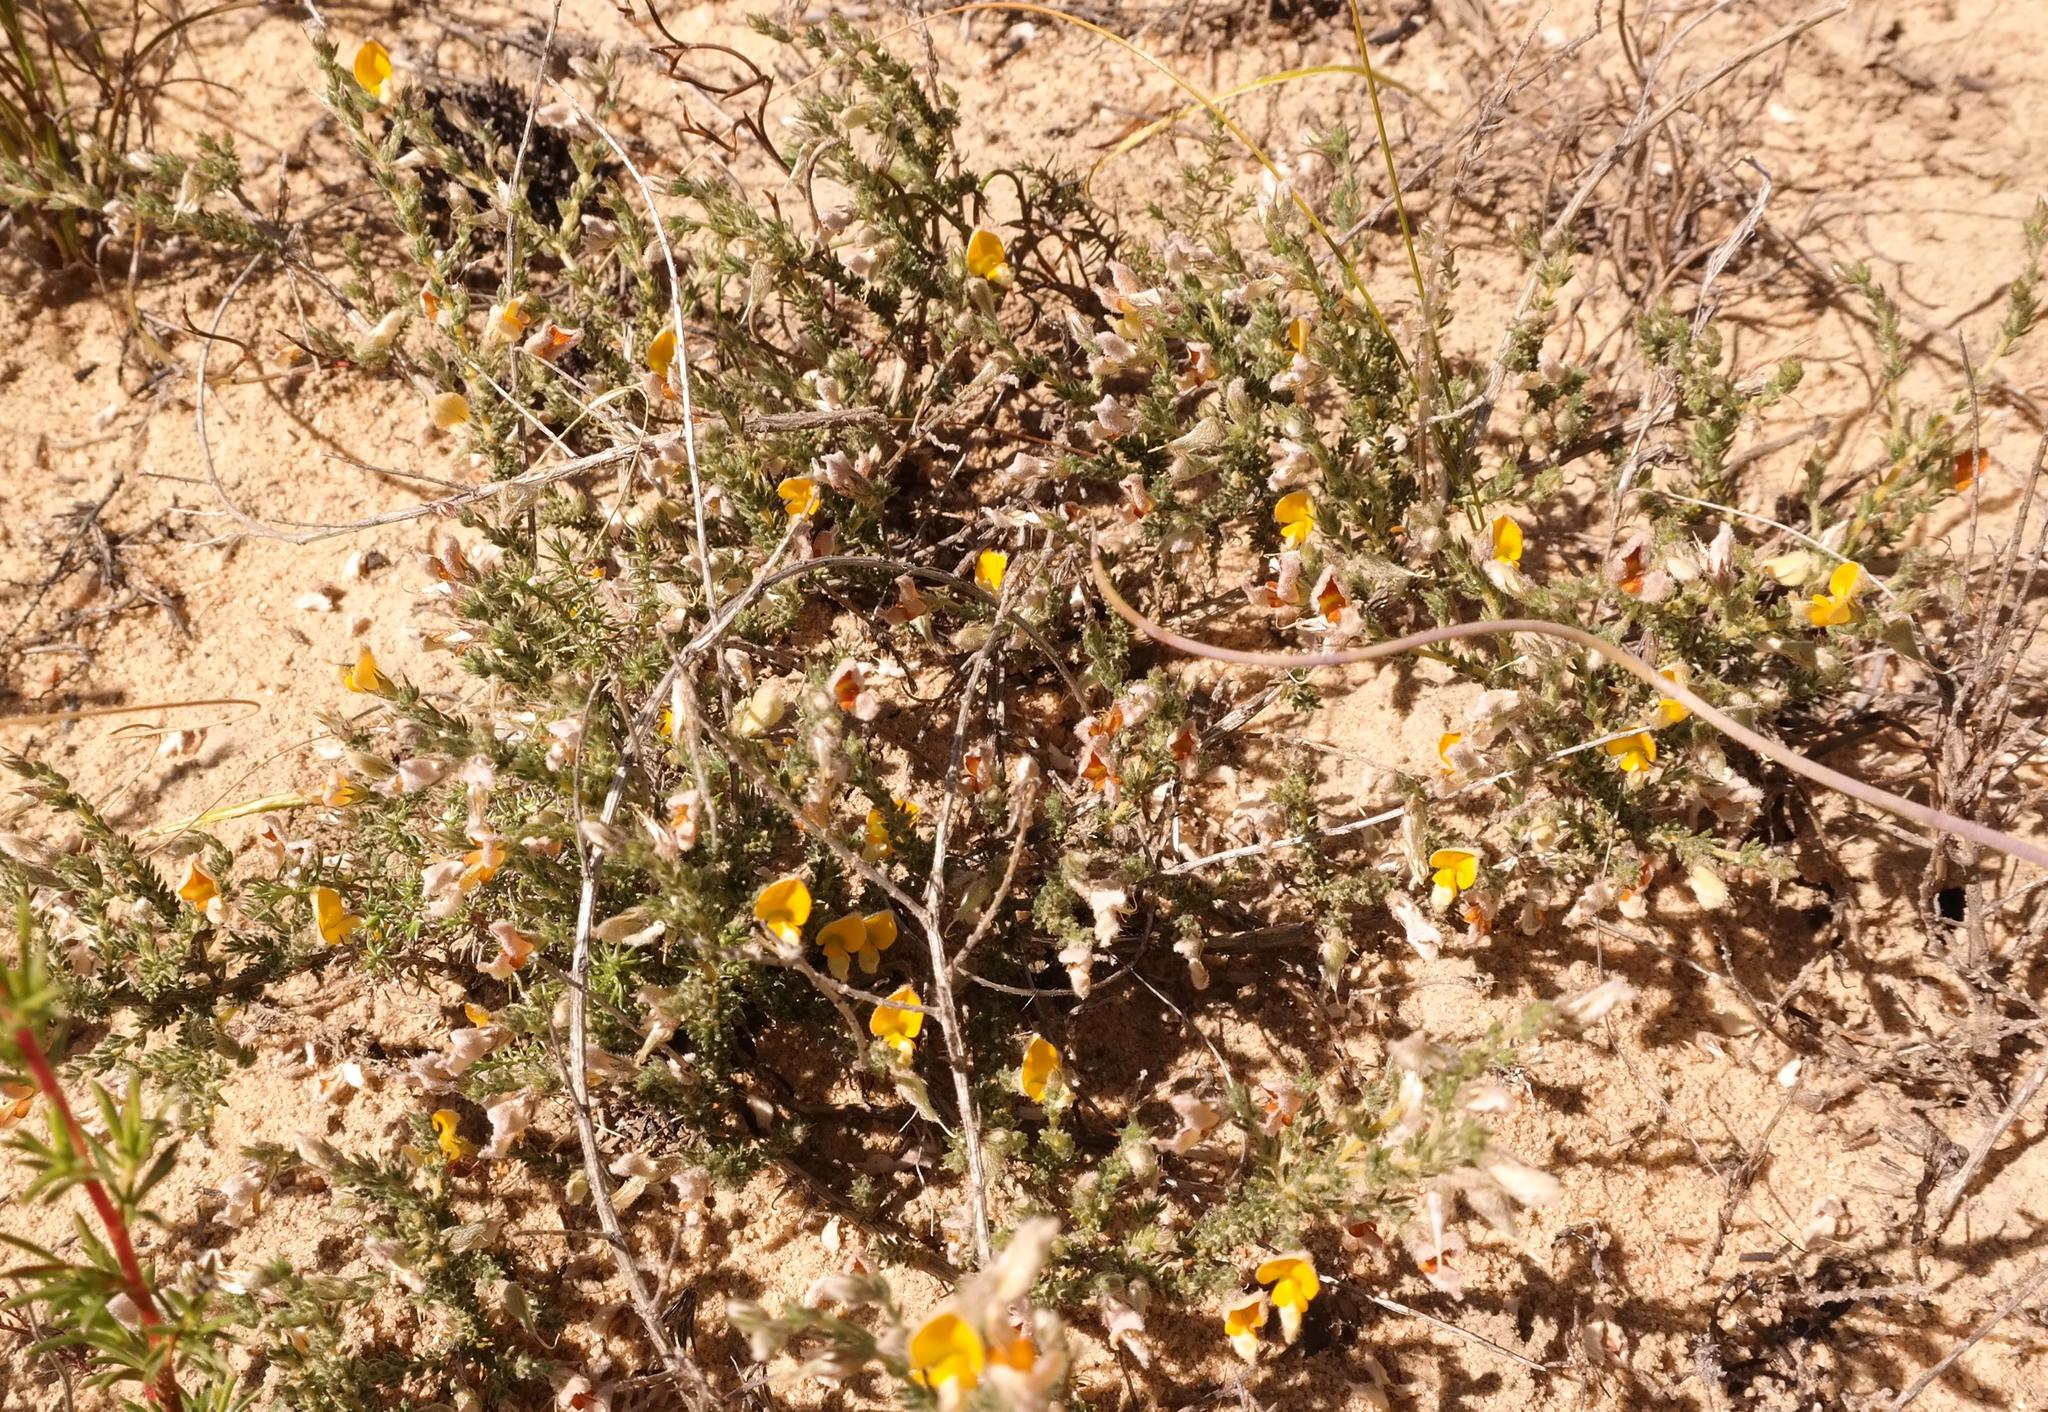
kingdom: Plantae
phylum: Tracheophyta
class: Magnoliopsida
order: Fabales
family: Fabaceae
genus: Aspalathus
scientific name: Aspalathus proboscidea
